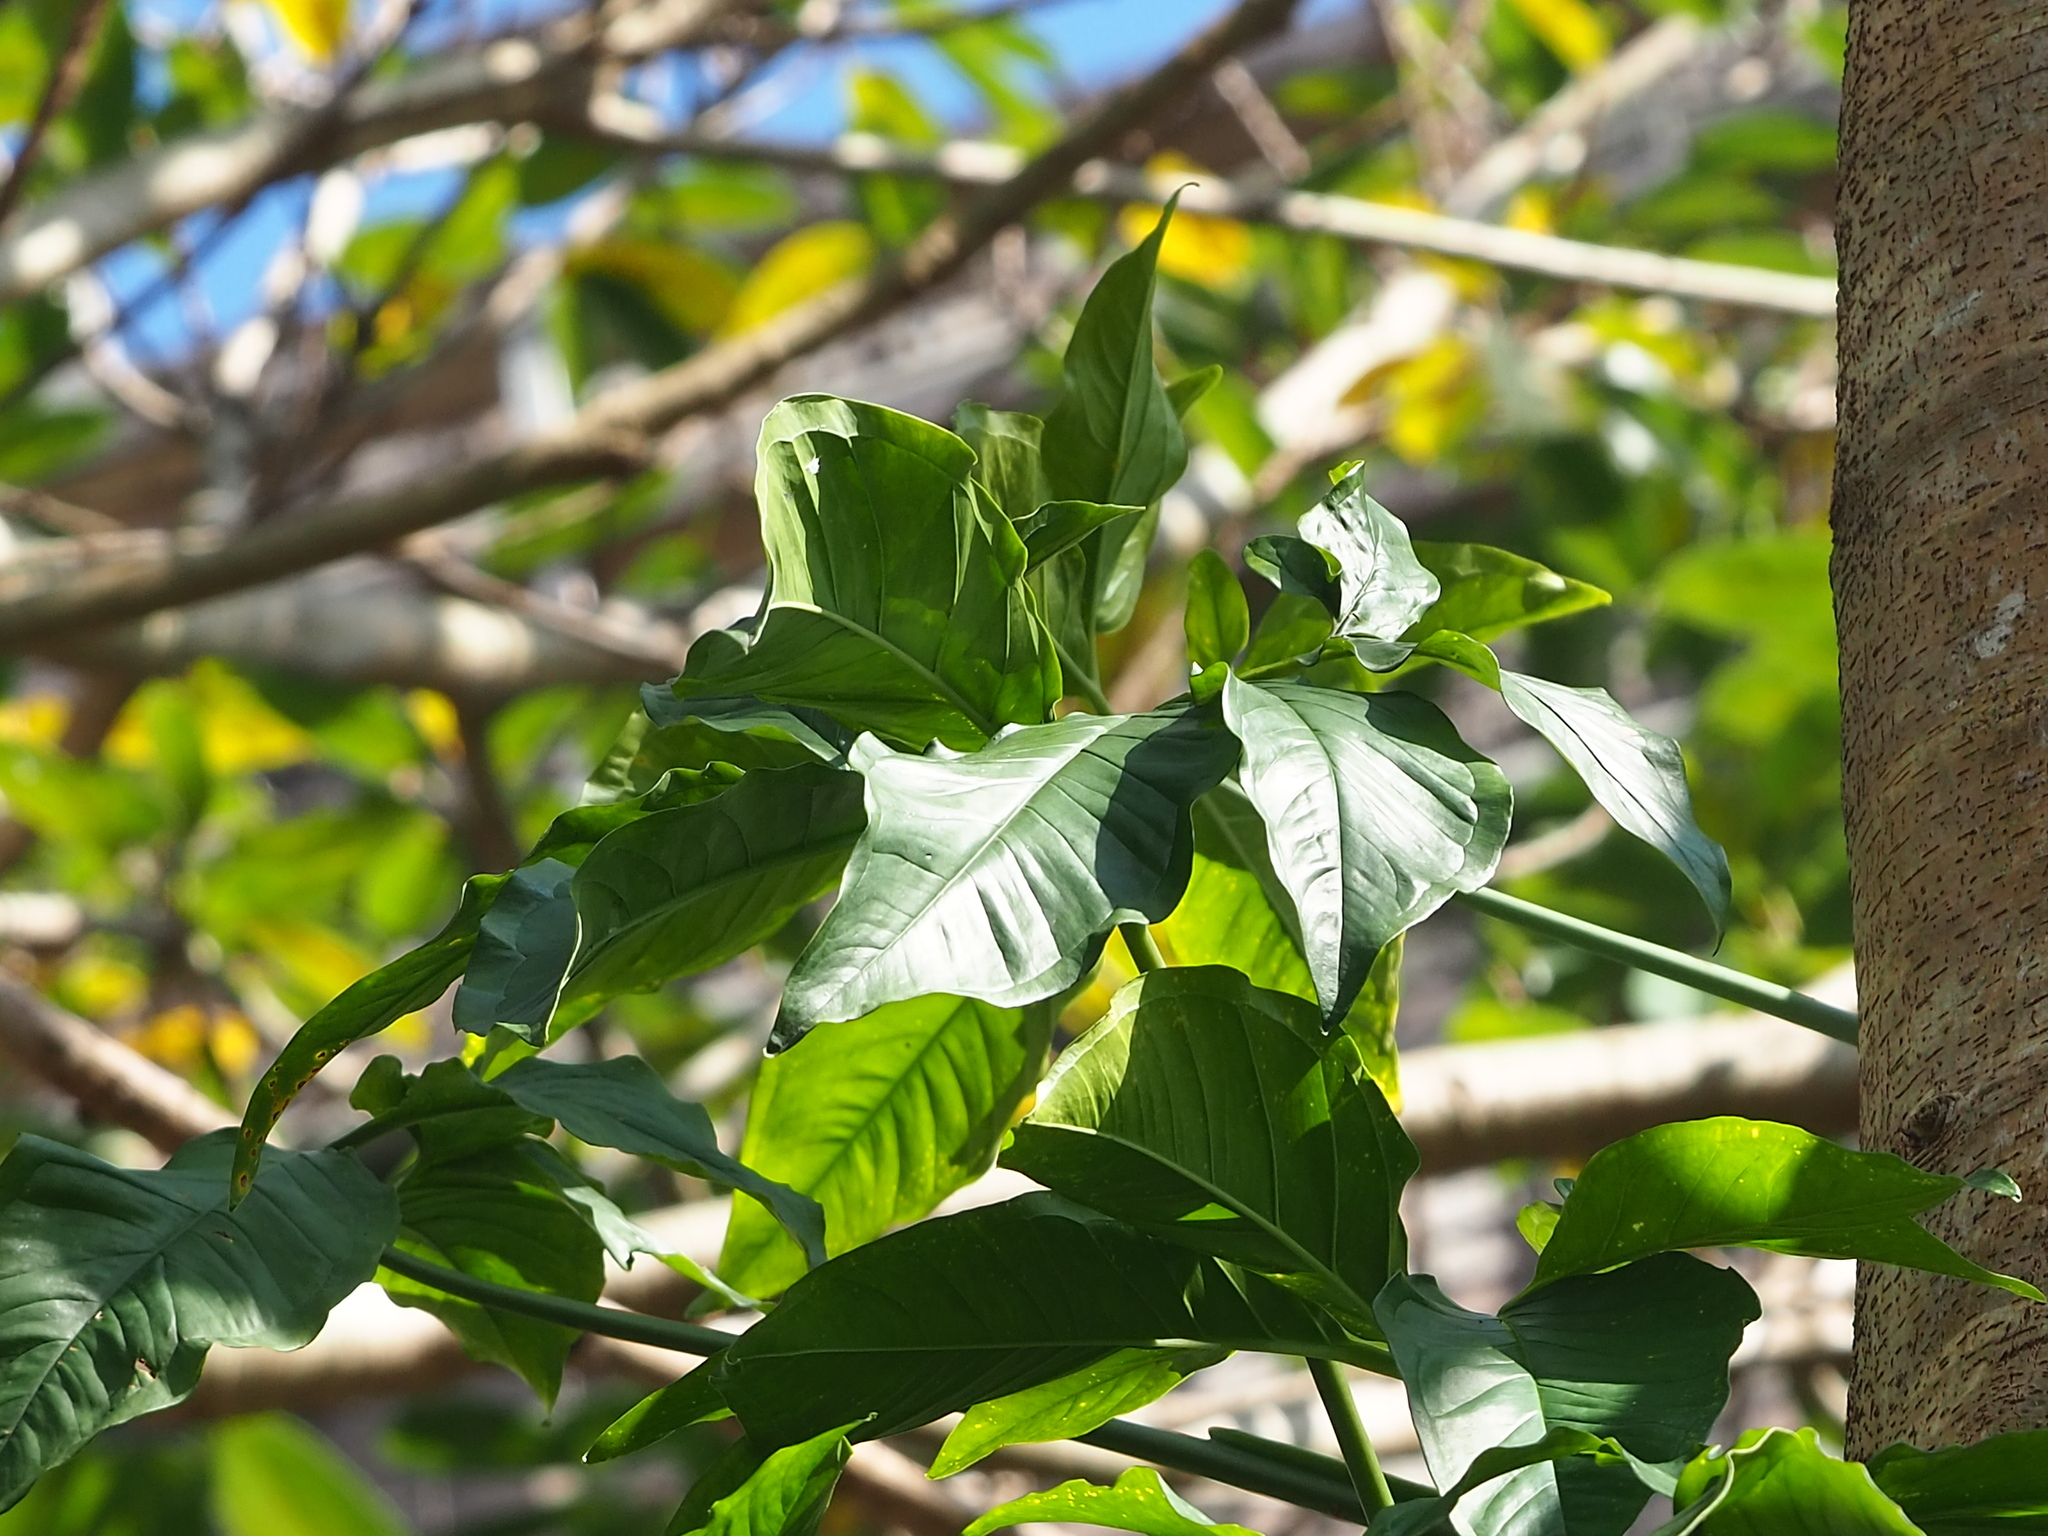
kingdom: Plantae
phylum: Tracheophyta
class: Liliopsida
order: Alismatales
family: Araceae
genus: Syngonium
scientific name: Syngonium angustatum
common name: Fivefingers
